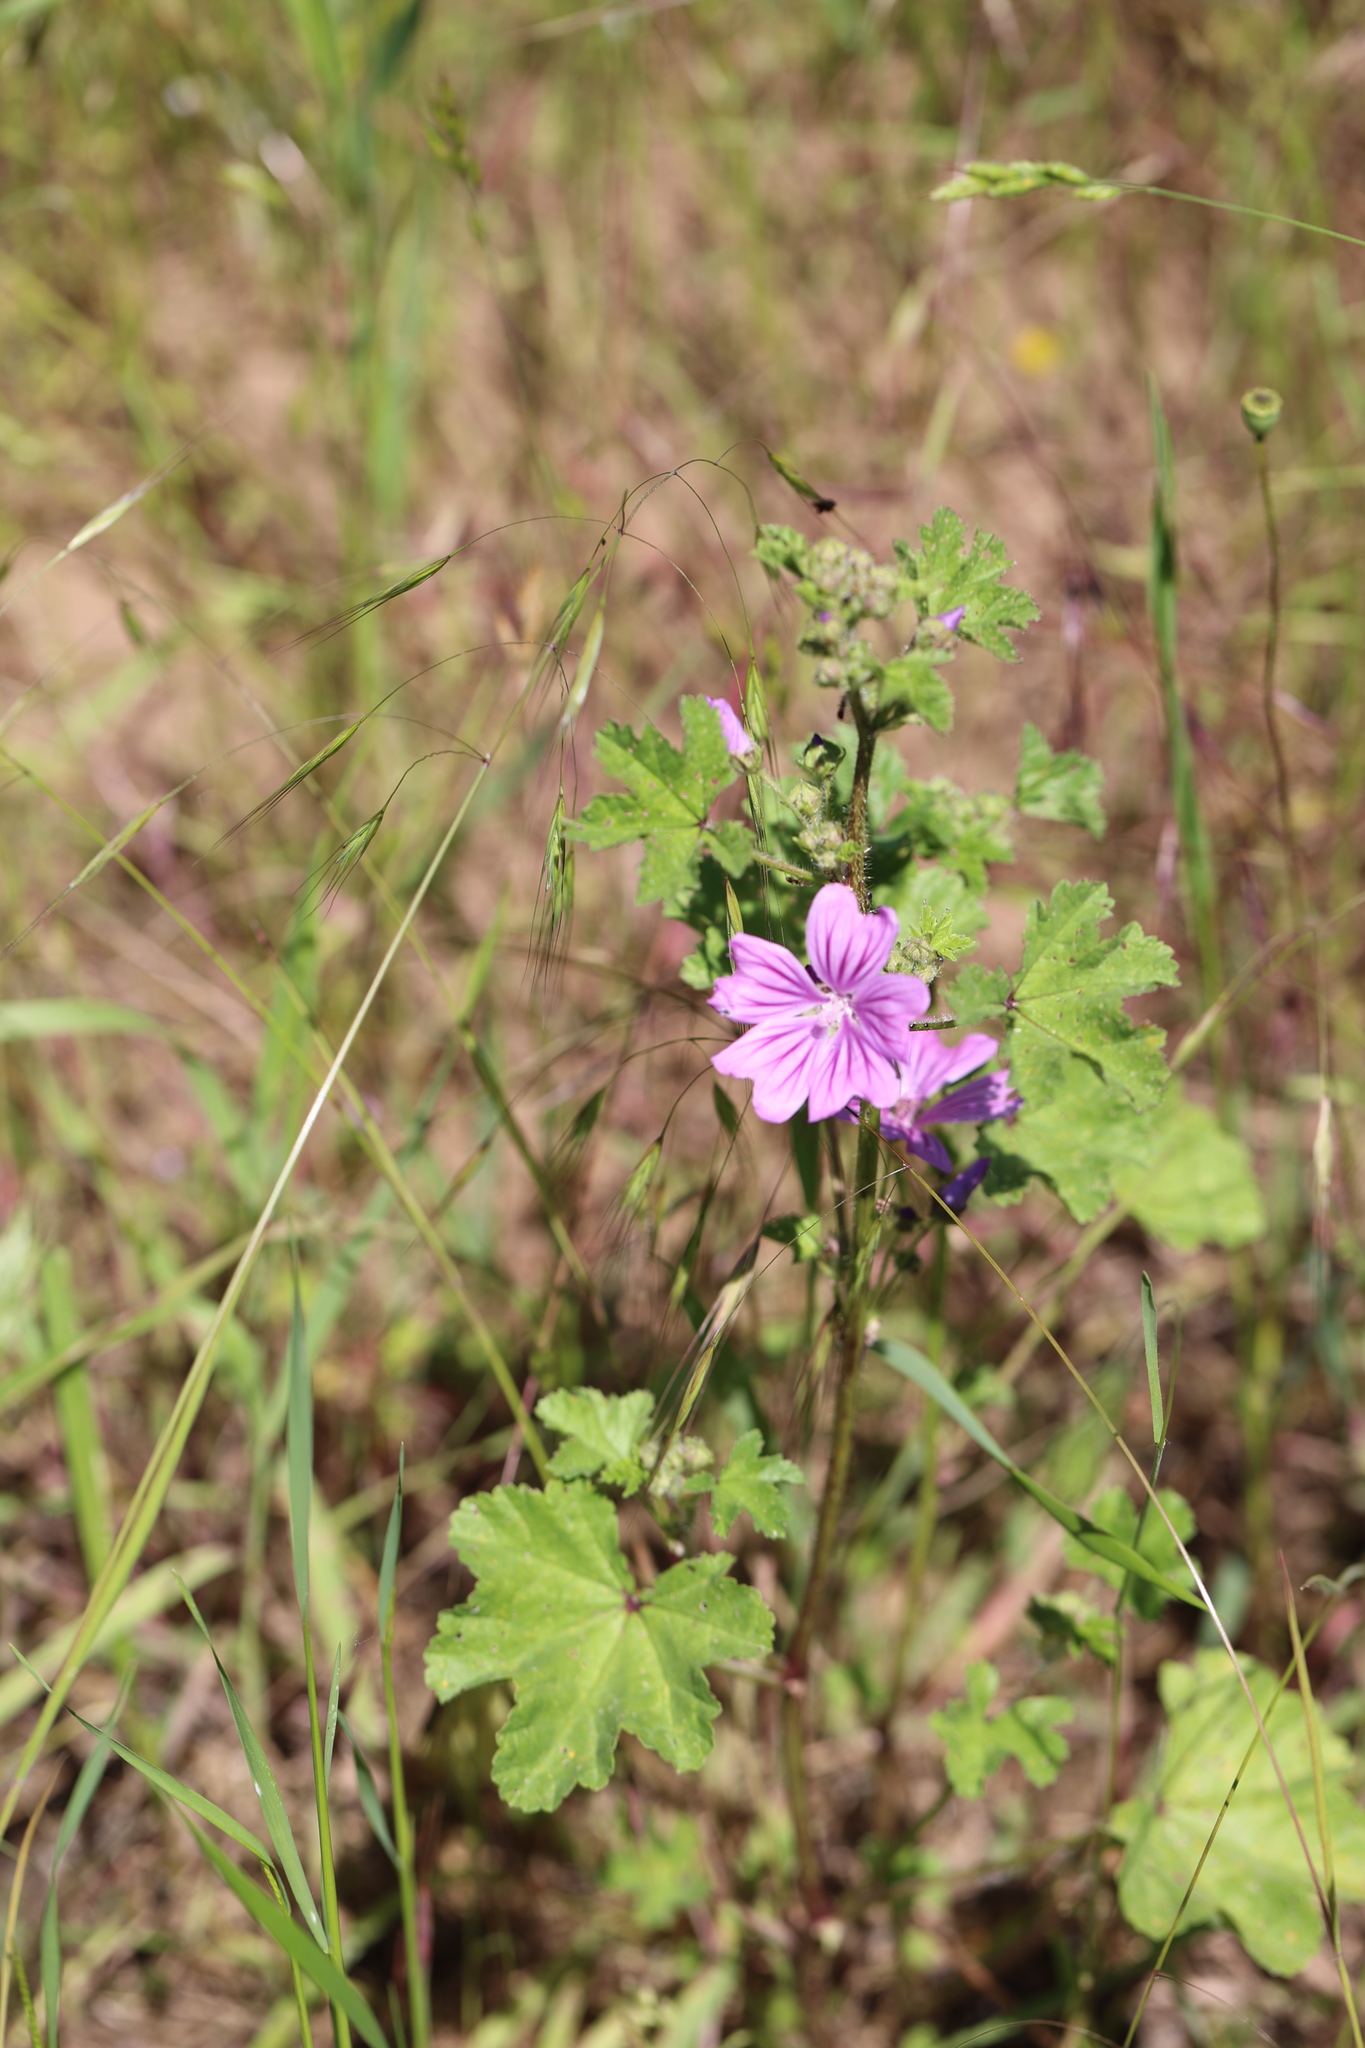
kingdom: Plantae
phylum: Tracheophyta
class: Magnoliopsida
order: Malvales
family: Malvaceae
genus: Malva
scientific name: Malva sylvestris
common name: Common mallow
